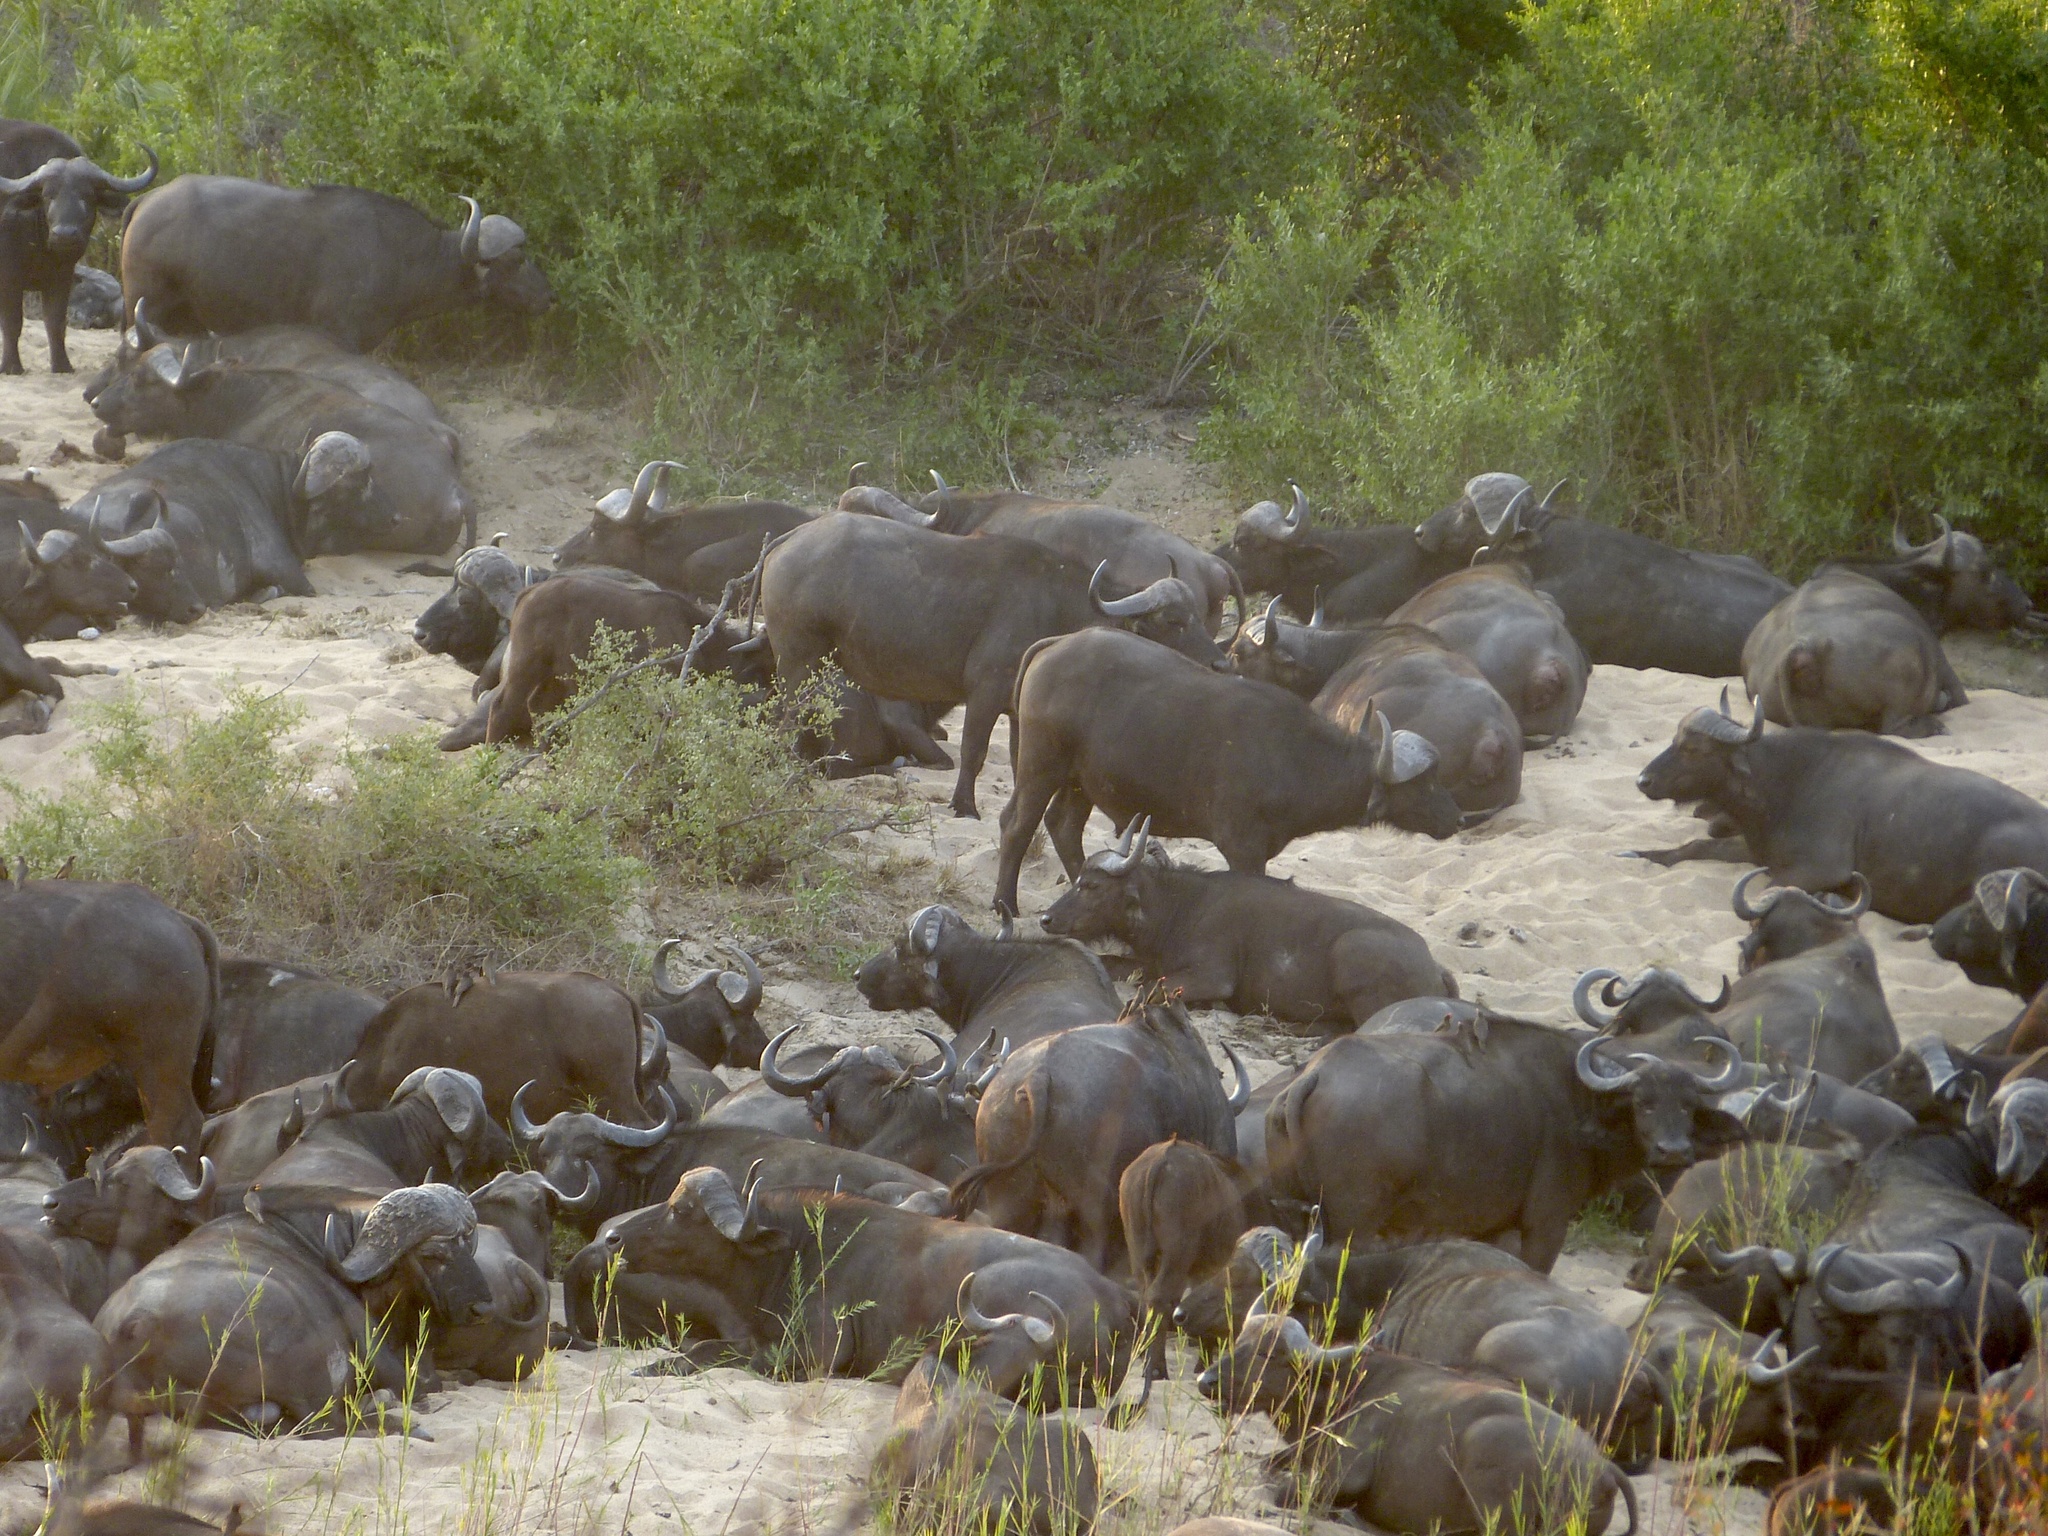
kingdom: Animalia
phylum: Chordata
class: Mammalia
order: Artiodactyla
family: Bovidae
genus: Syncerus
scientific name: Syncerus caffer
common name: African buffalo
